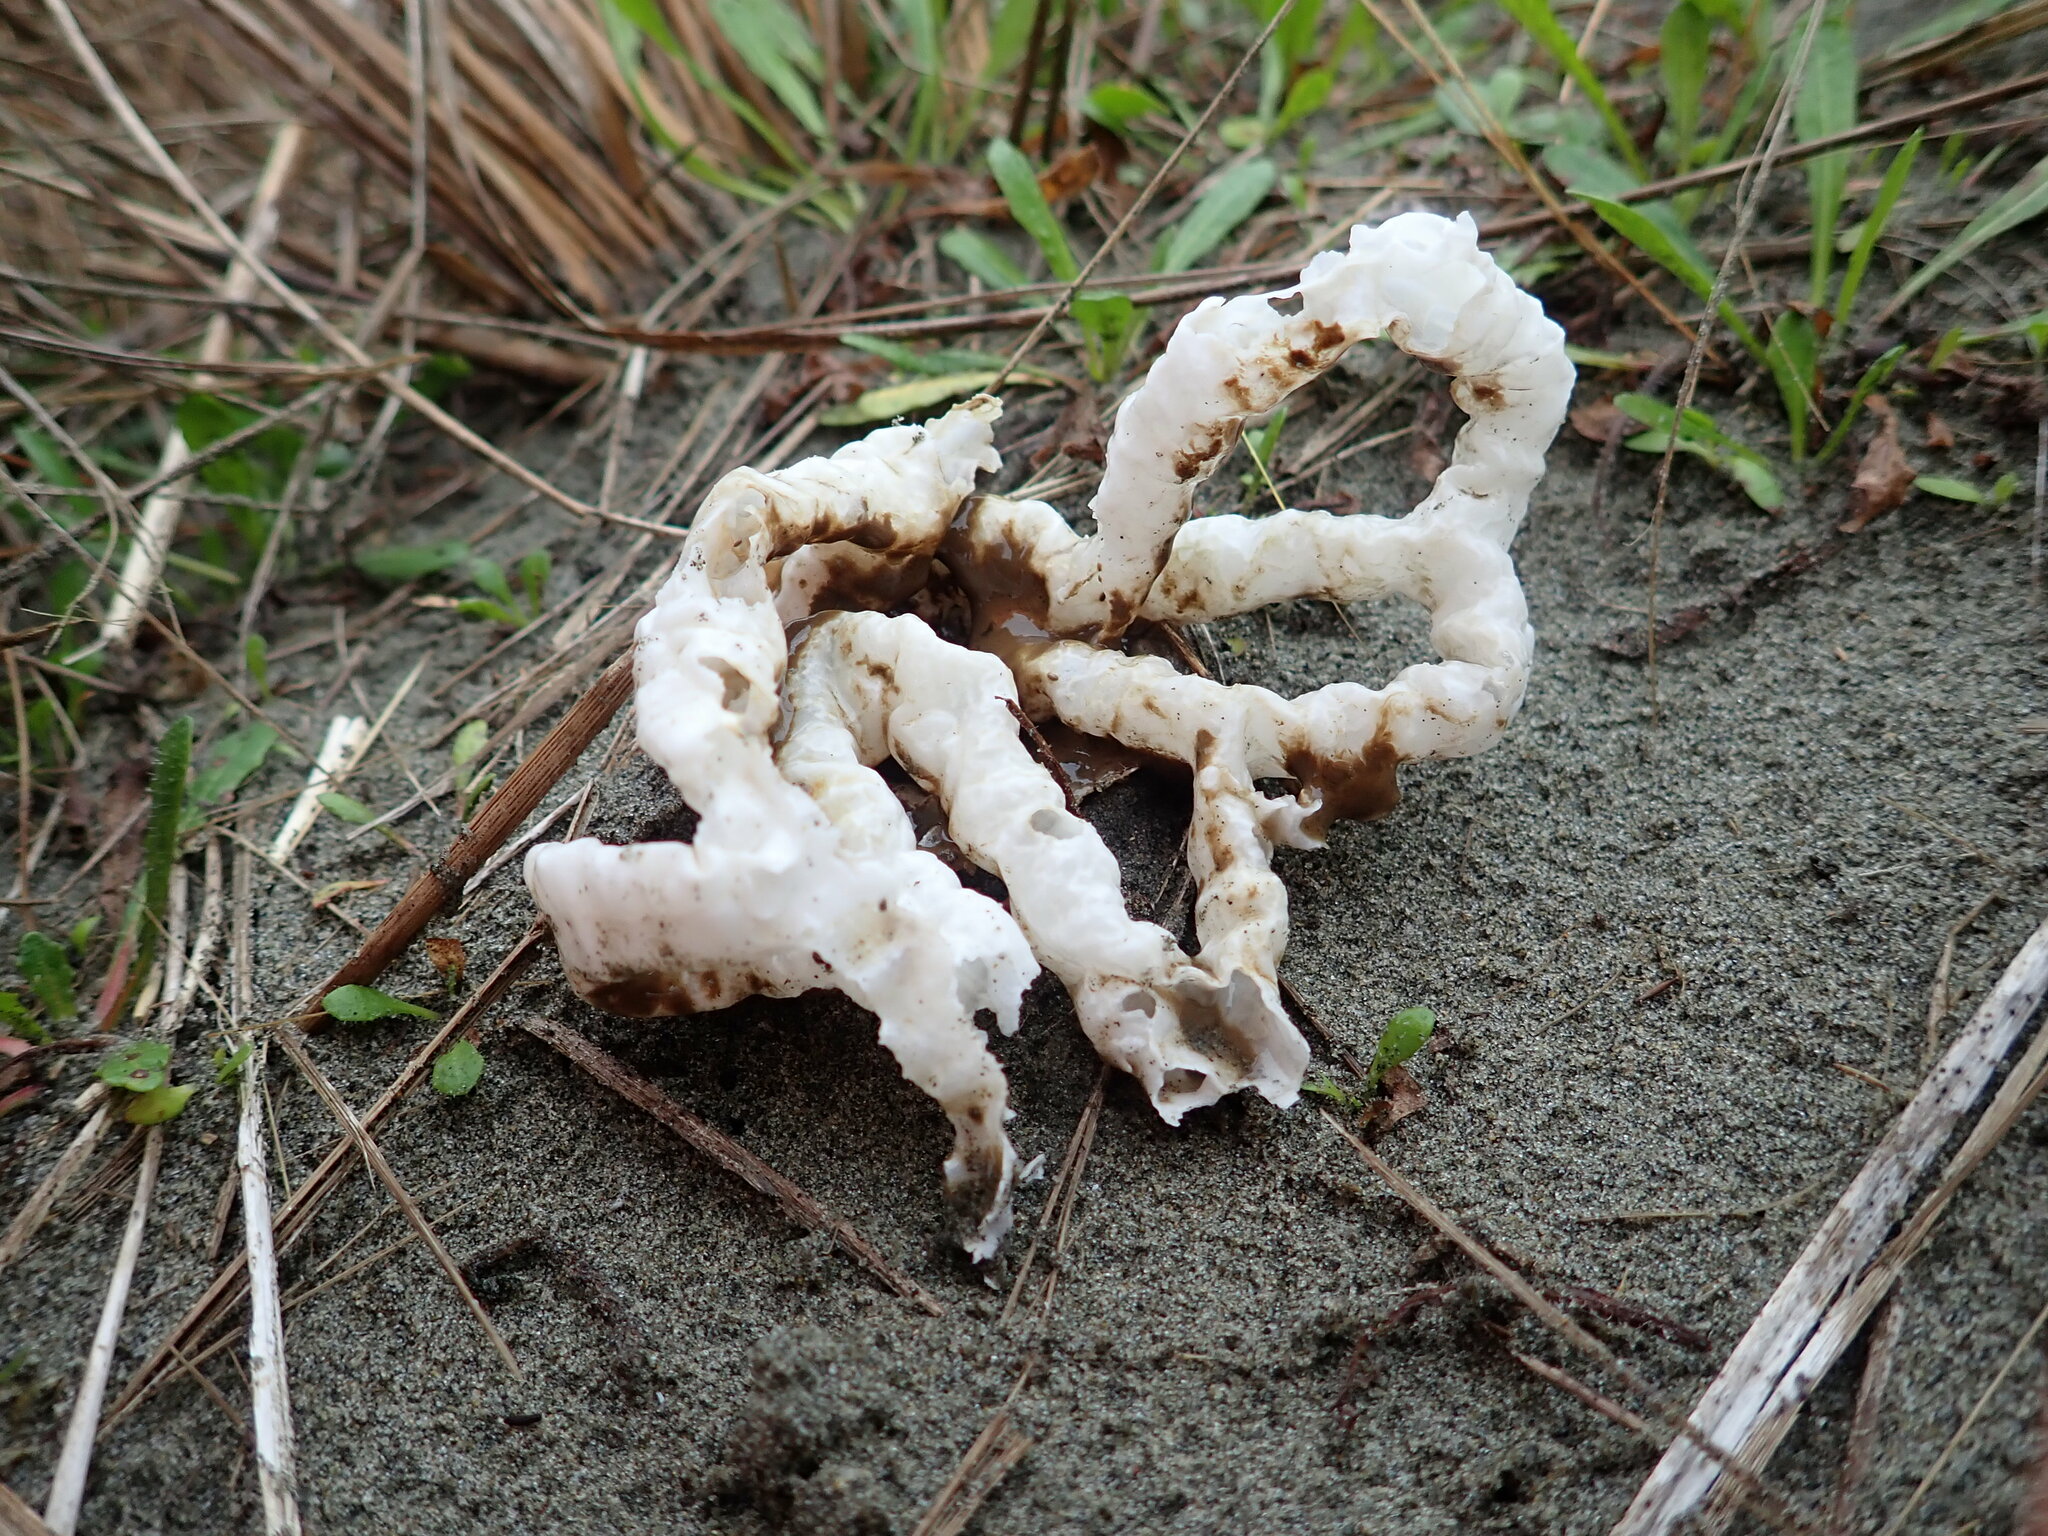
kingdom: Fungi
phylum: Basidiomycota
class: Agaricomycetes
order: Phallales
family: Phallaceae
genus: Ileodictyon
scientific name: Ileodictyon cibarium
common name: Basket fungus
